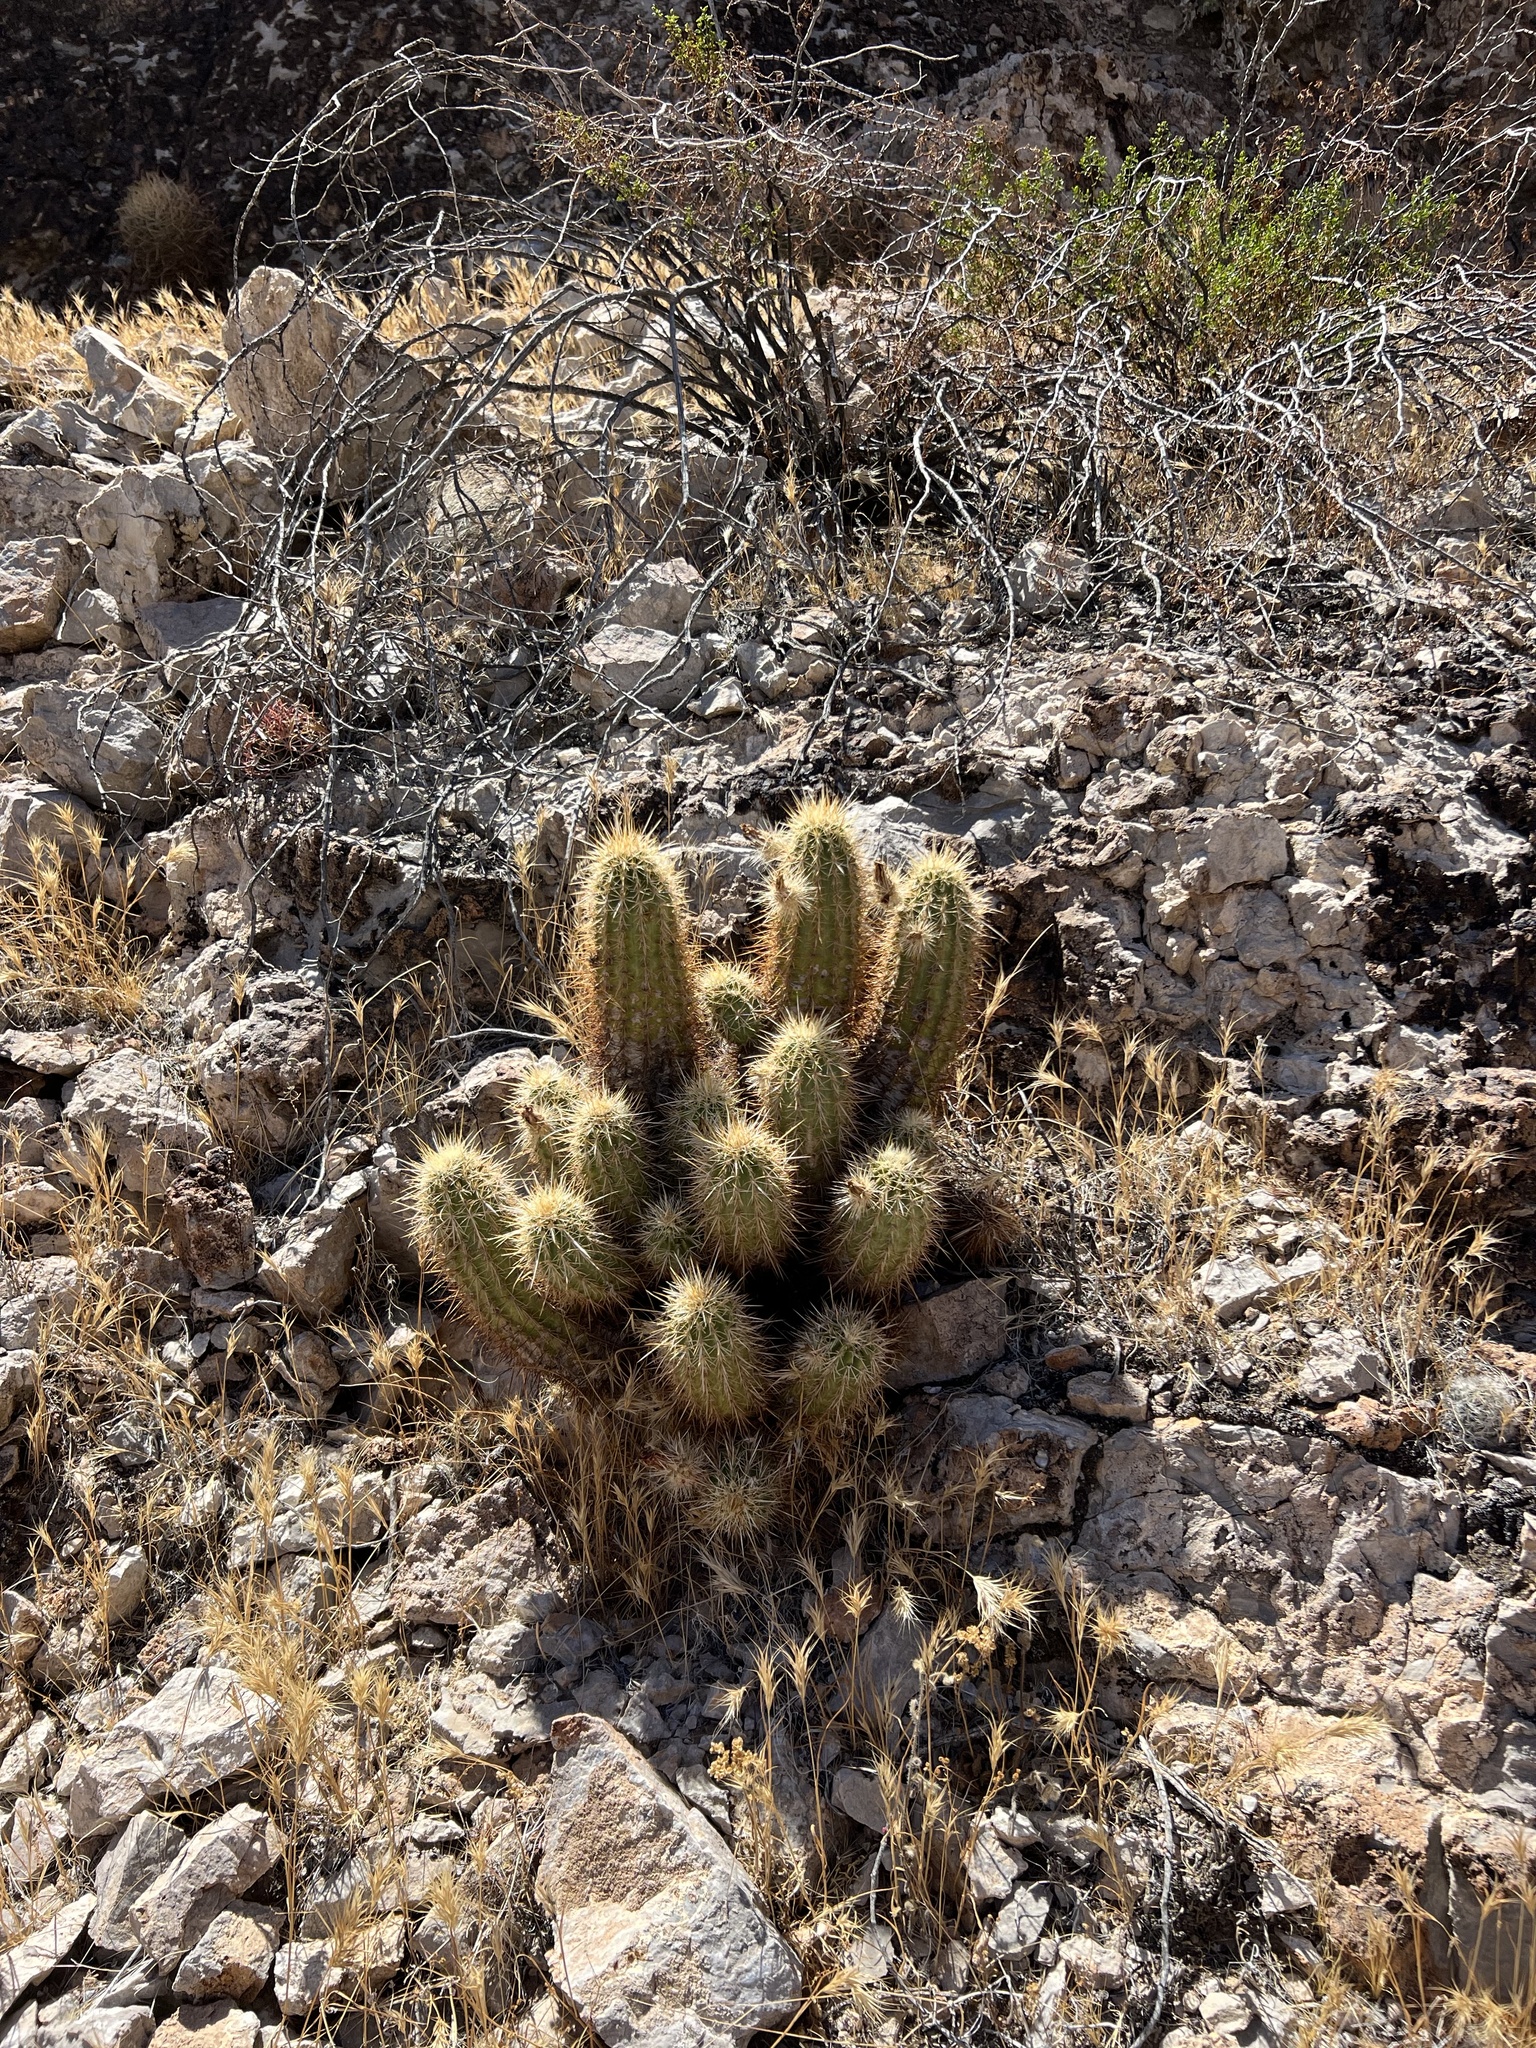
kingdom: Plantae
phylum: Tracheophyta
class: Magnoliopsida
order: Caryophyllales
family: Cactaceae
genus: Echinocereus
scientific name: Echinocereus engelmannii
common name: Engelmann's hedgehog cactus
